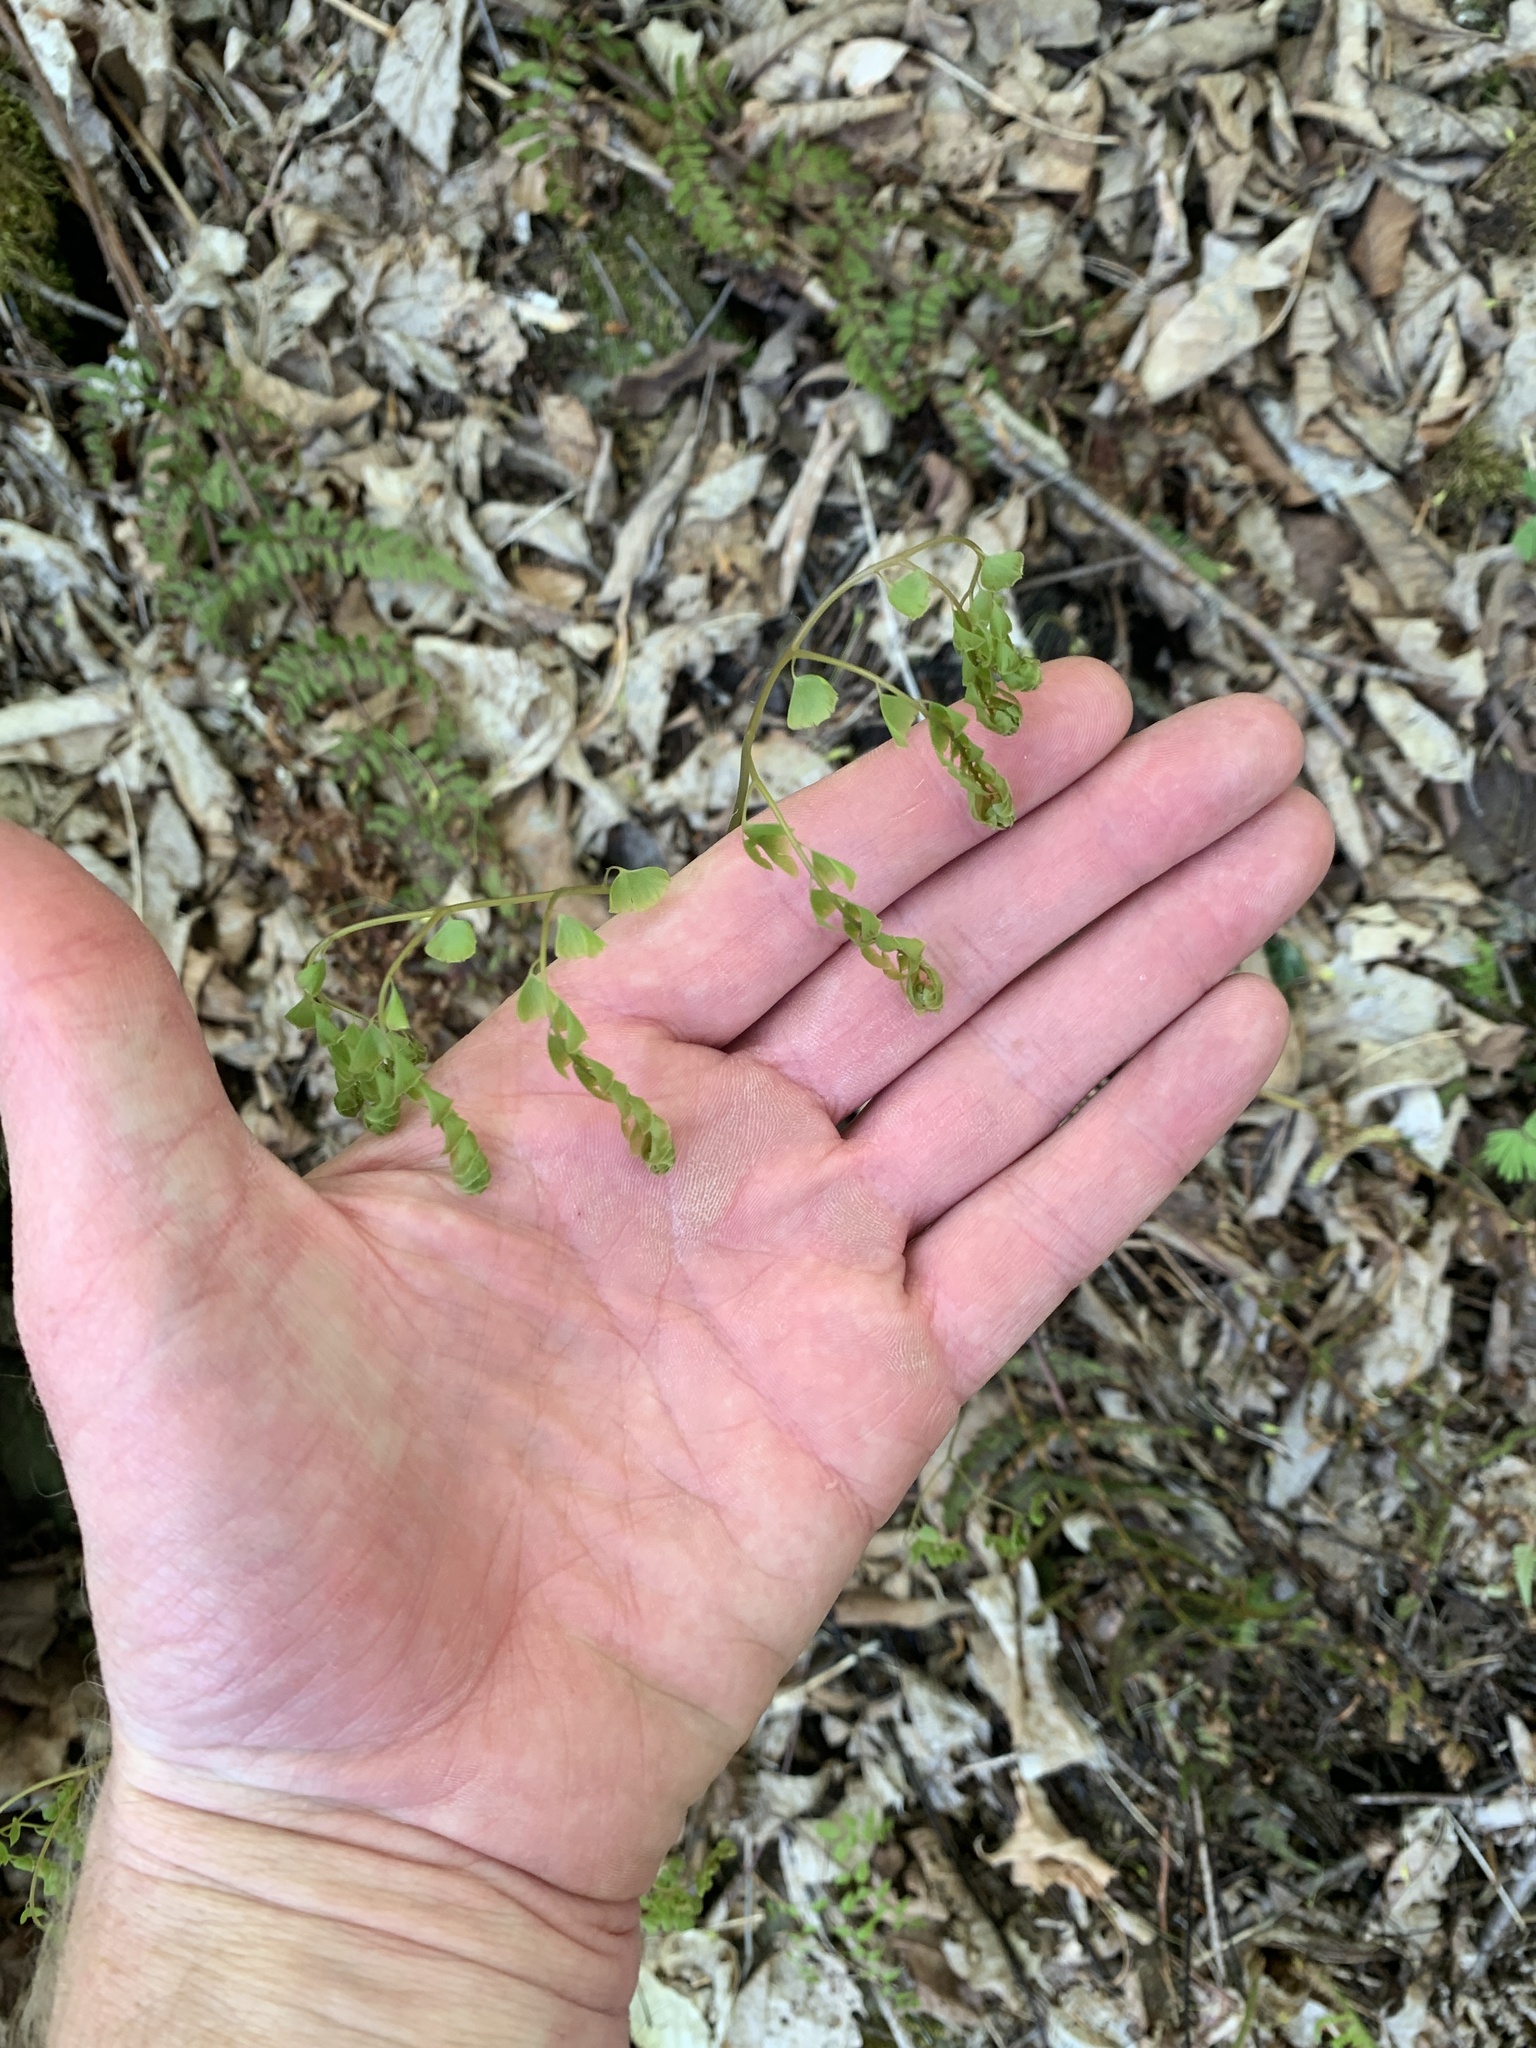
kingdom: Plantae
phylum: Tracheophyta
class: Polypodiopsida
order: Polypodiales
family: Pteridaceae
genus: Adiantum
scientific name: Adiantum pedatum
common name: Five-finger fern
